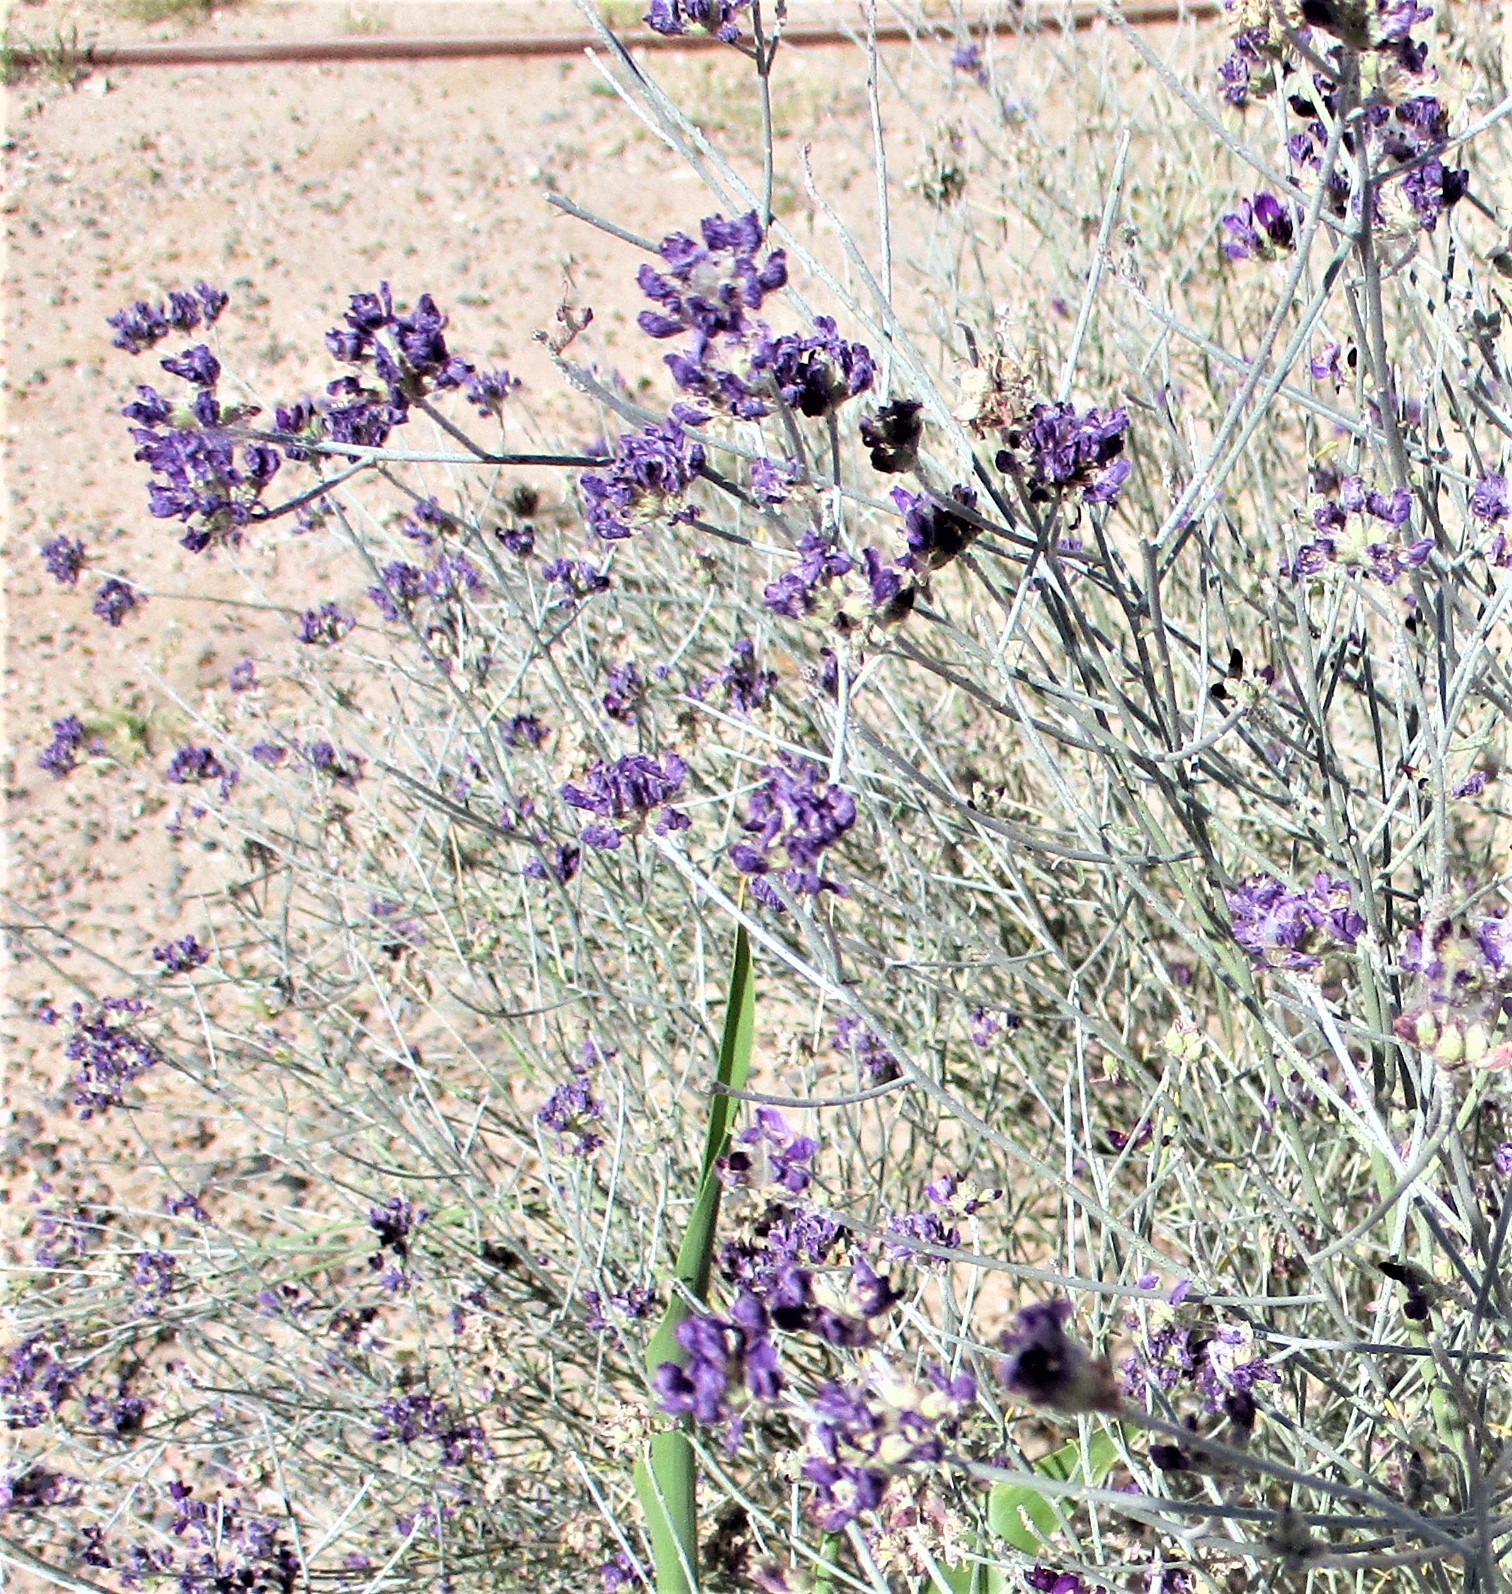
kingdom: Plantae
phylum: Tracheophyta
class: Magnoliopsida
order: Fabales
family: Fabaceae
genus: Psorothamnus
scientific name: Psorothamnus scoparius
